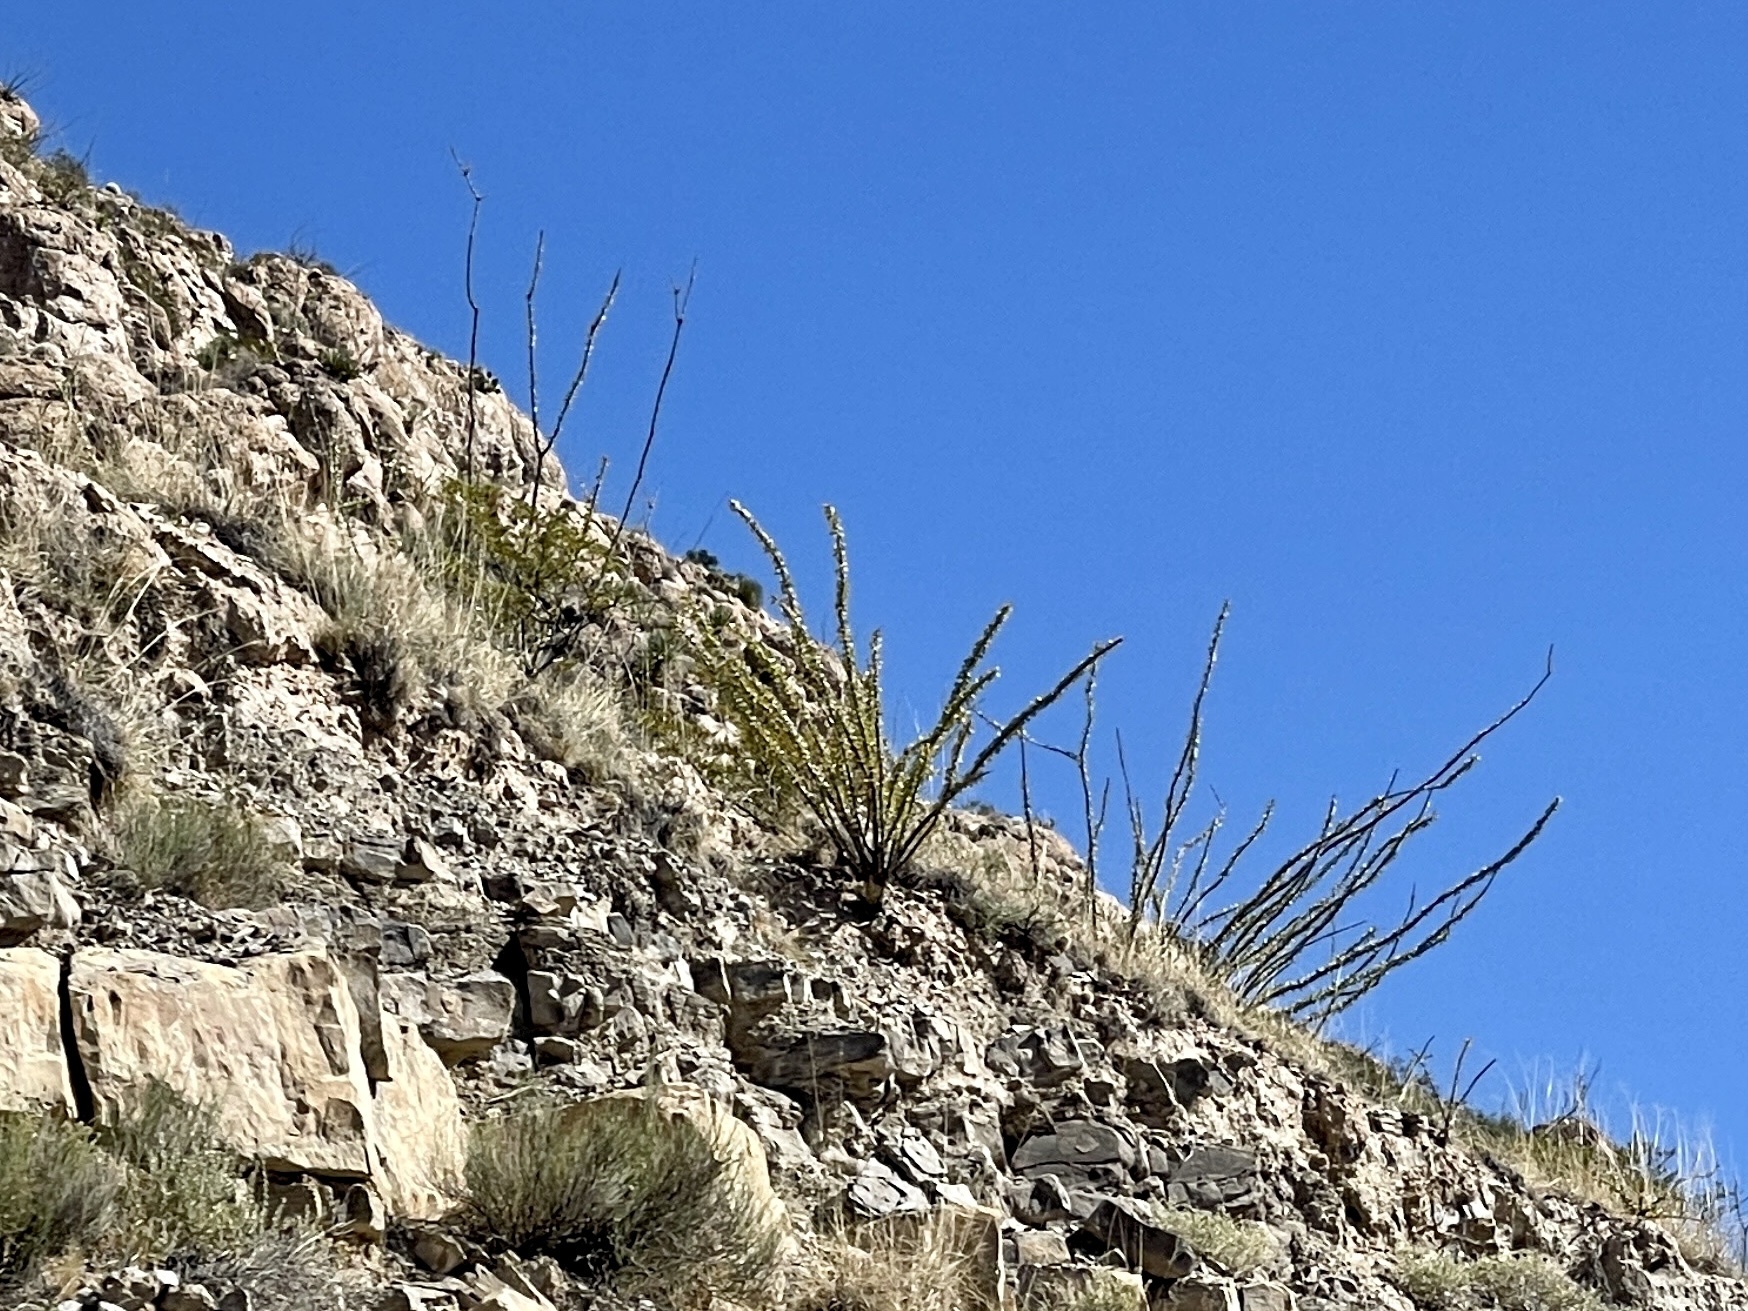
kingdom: Plantae
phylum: Tracheophyta
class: Magnoliopsida
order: Ericales
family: Fouquieriaceae
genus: Fouquieria
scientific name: Fouquieria splendens
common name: Vine-cactus
